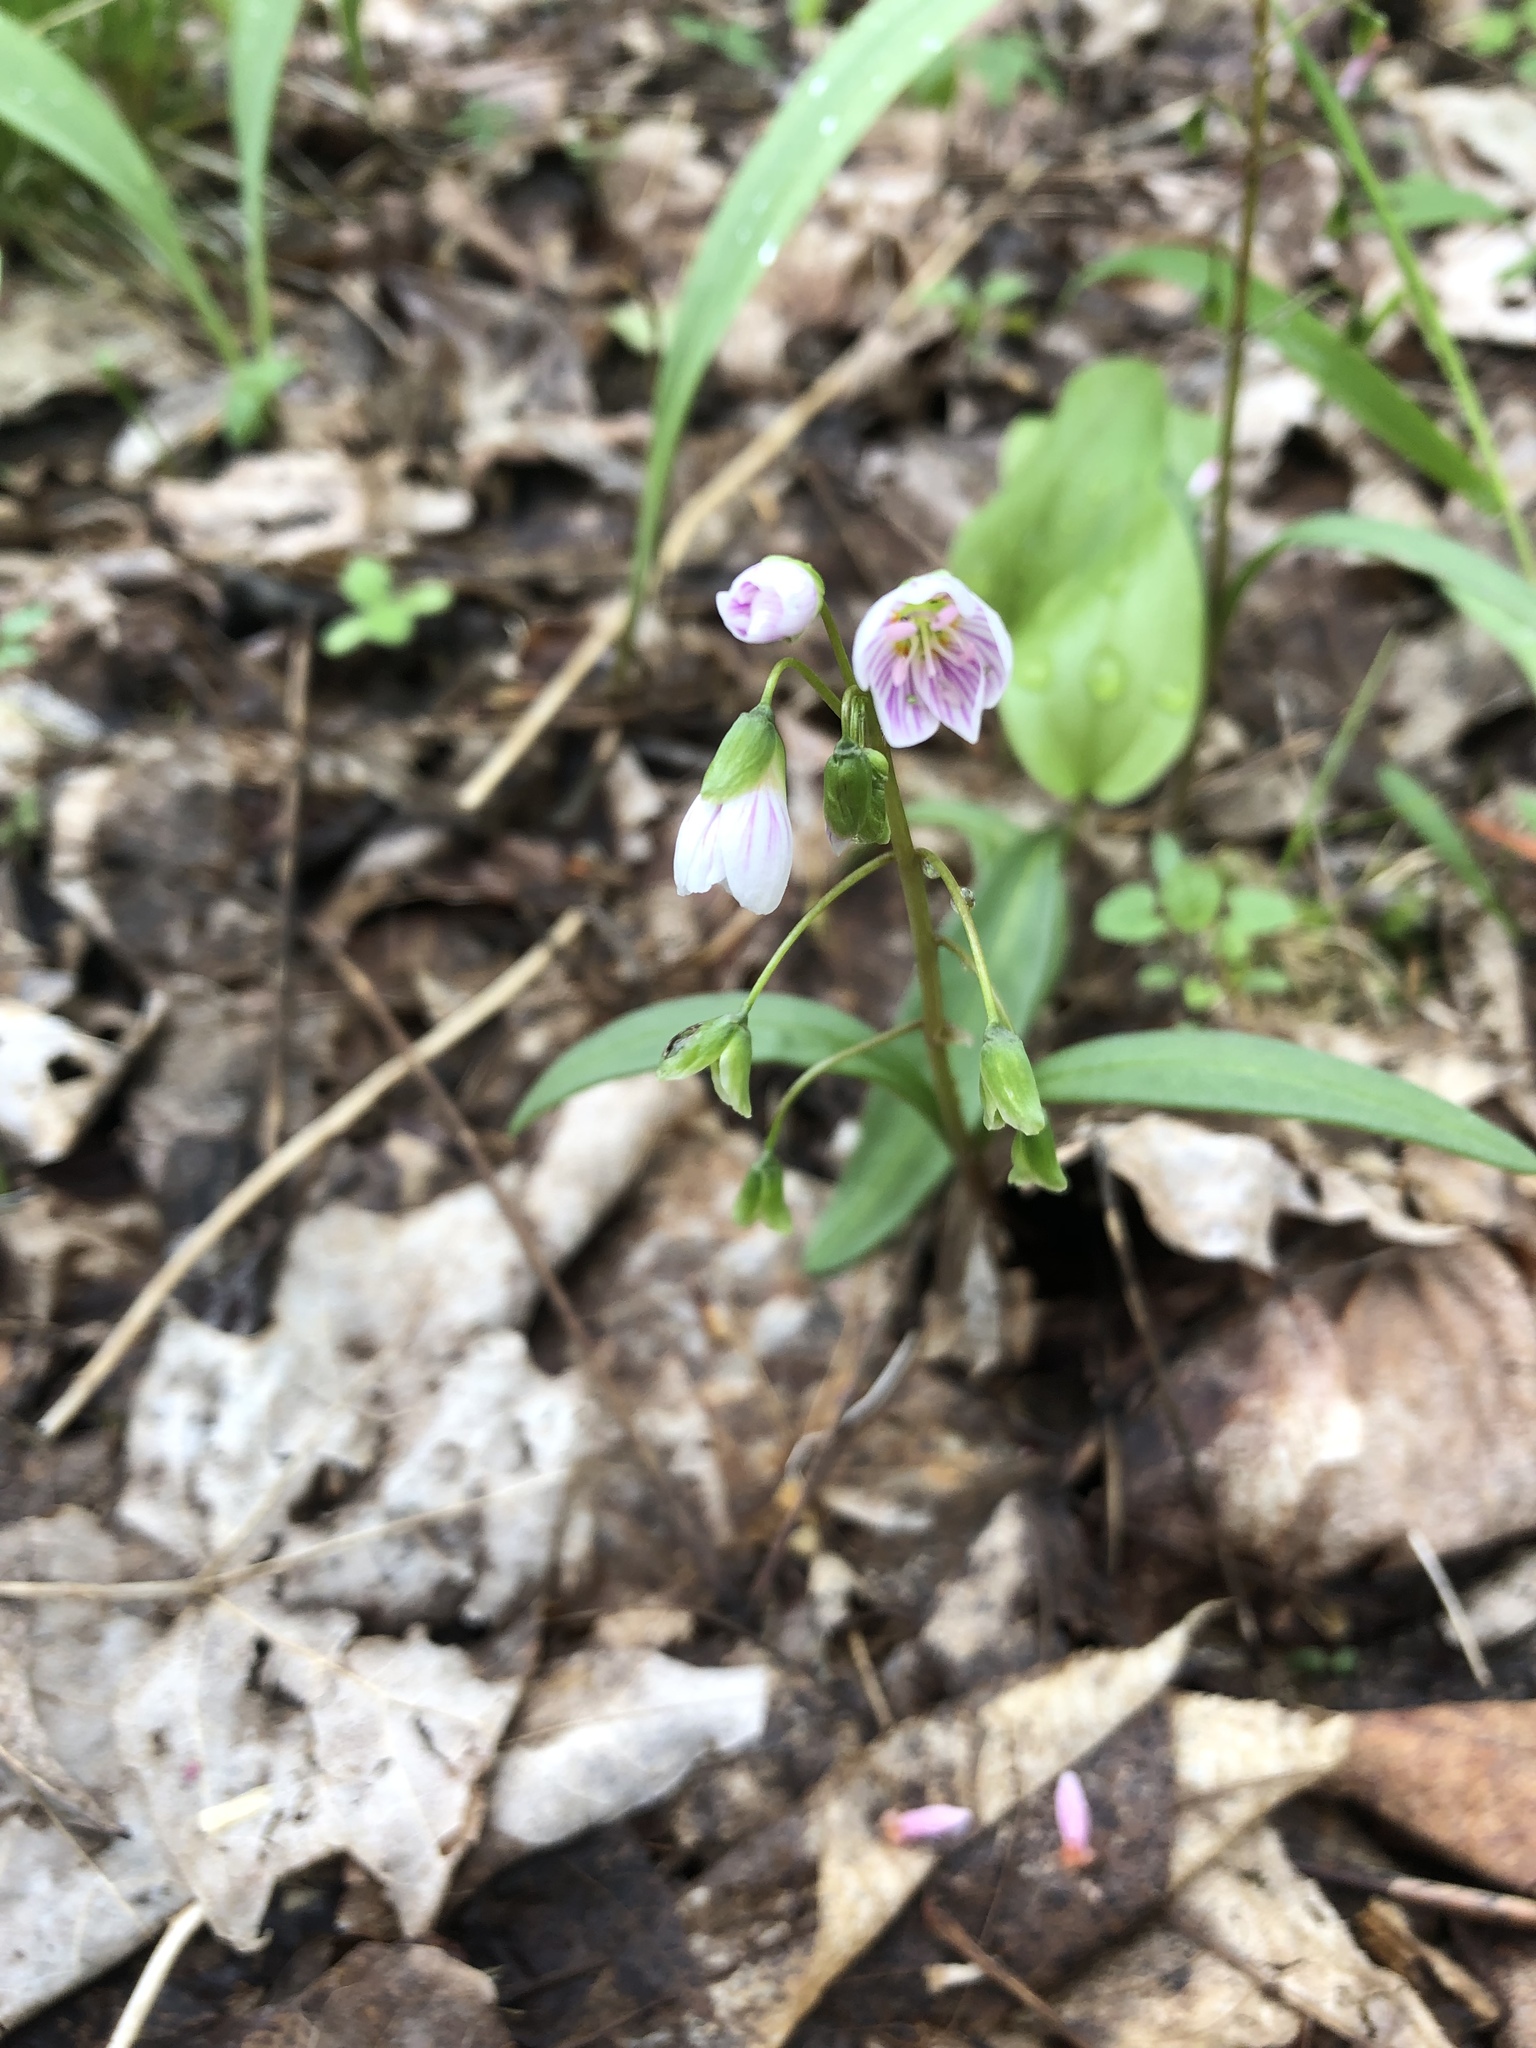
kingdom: Plantae
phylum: Tracheophyta
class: Magnoliopsida
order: Caryophyllales
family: Montiaceae
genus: Claytonia
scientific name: Claytonia virginica
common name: Virginia springbeauty
